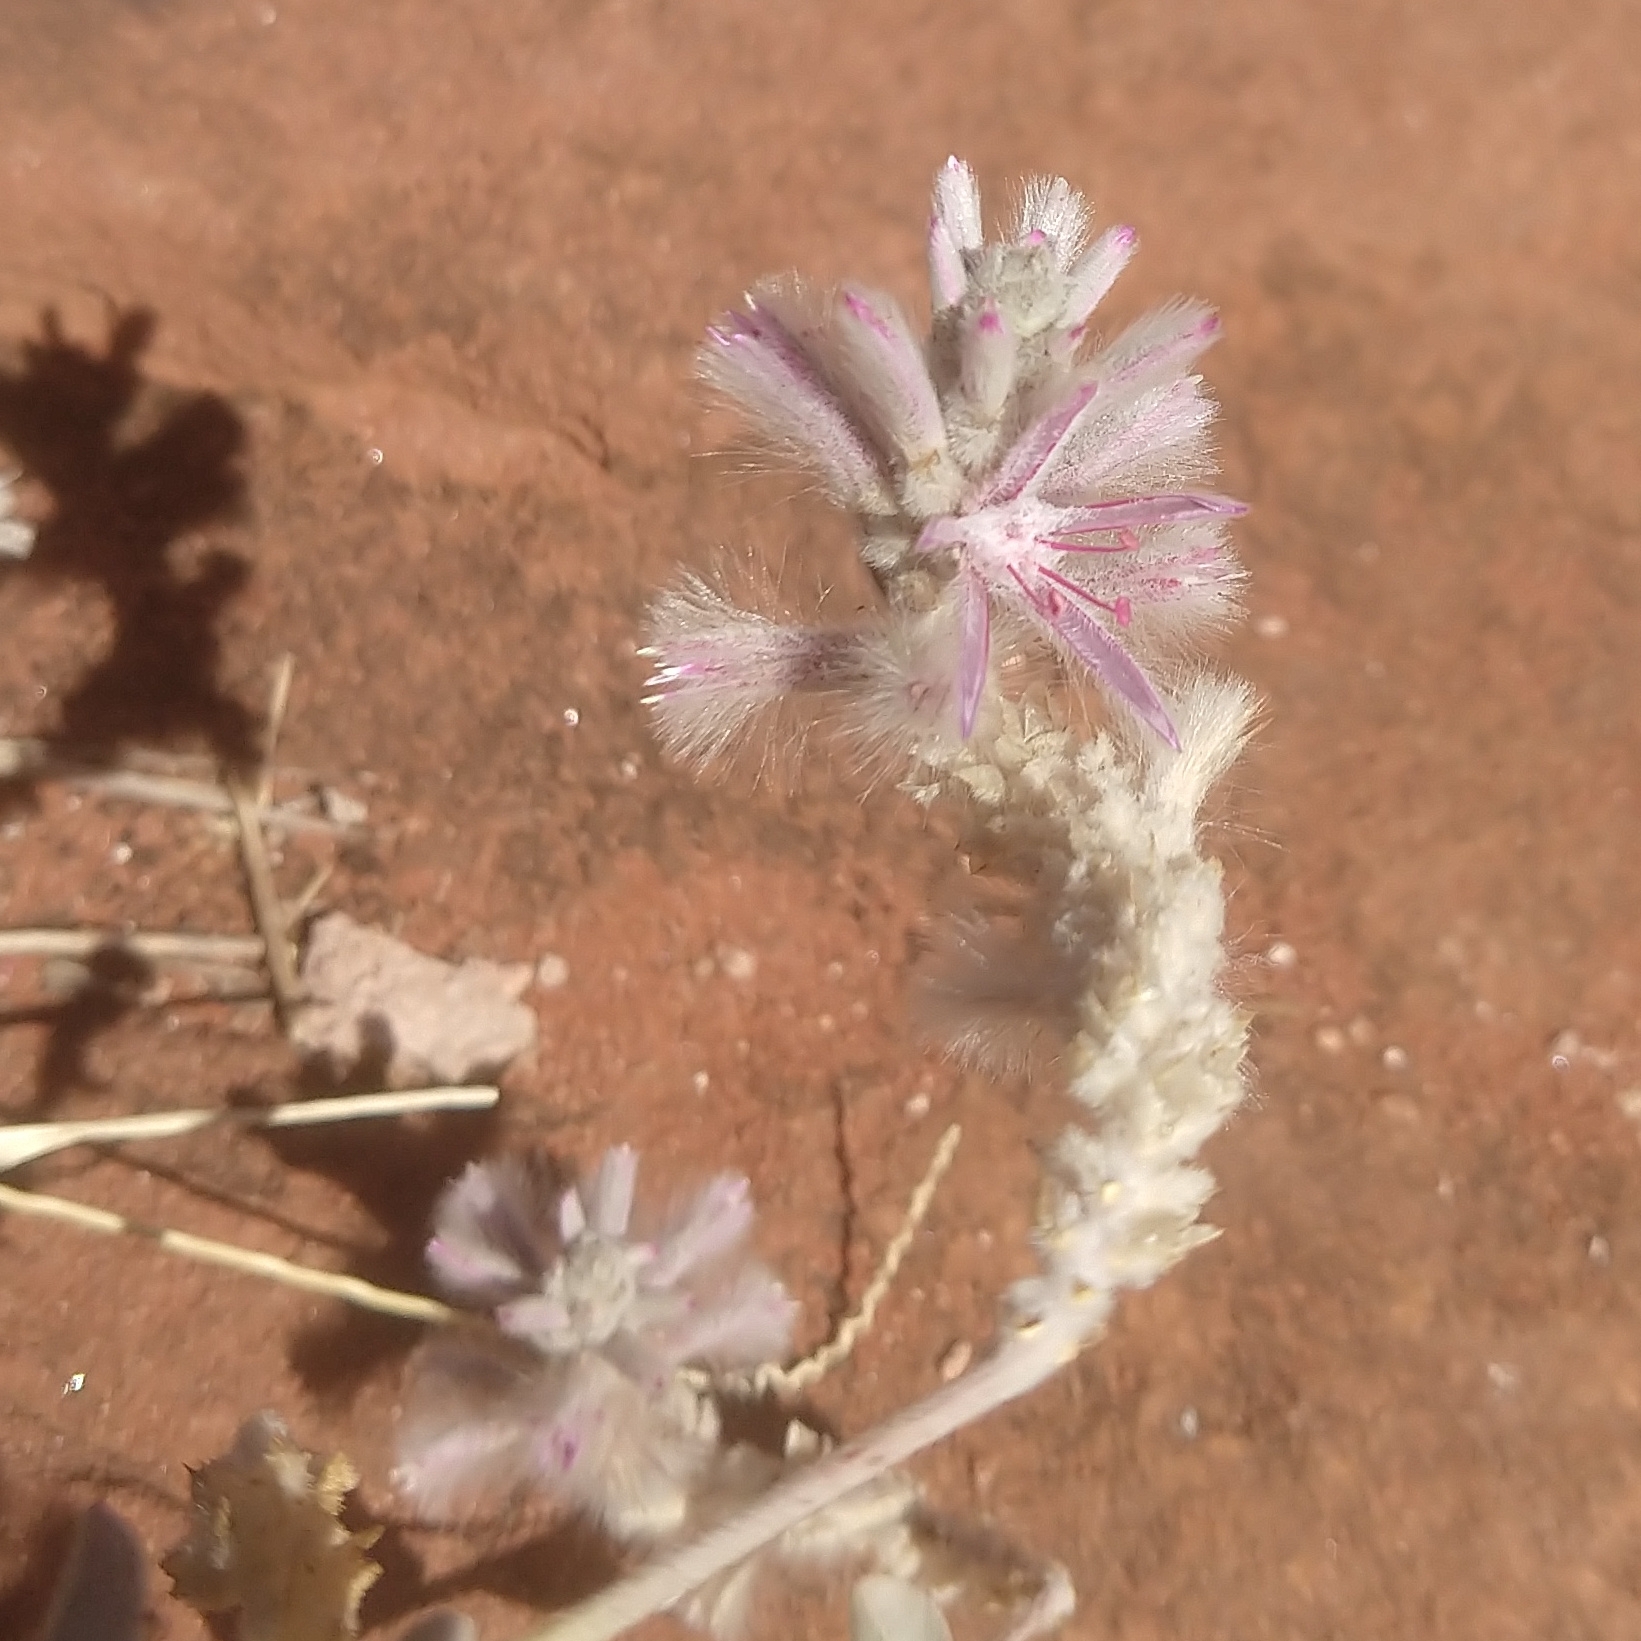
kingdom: Plantae
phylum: Tracheophyta
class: Magnoliopsida
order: Caryophyllales
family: Amaranthaceae
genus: Ptilotus
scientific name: Ptilotus sessilifolius
